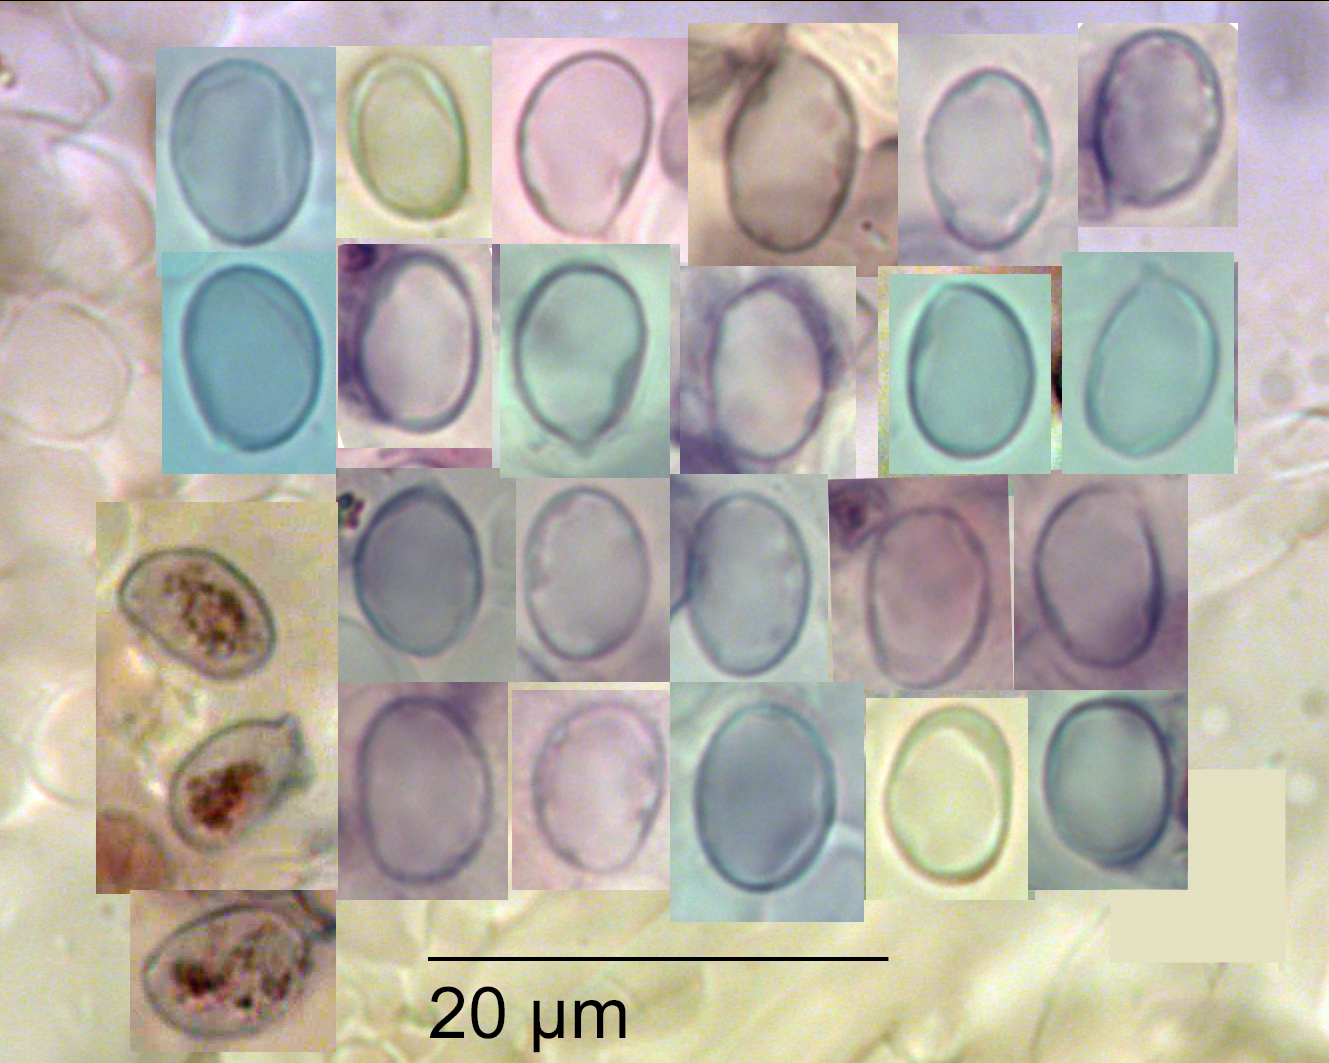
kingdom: Fungi
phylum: Basidiomycota
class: Agaricomycetes
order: Agaricales
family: Tricholomataceae
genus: Porpoloma
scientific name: Porpoloma amyloideum
